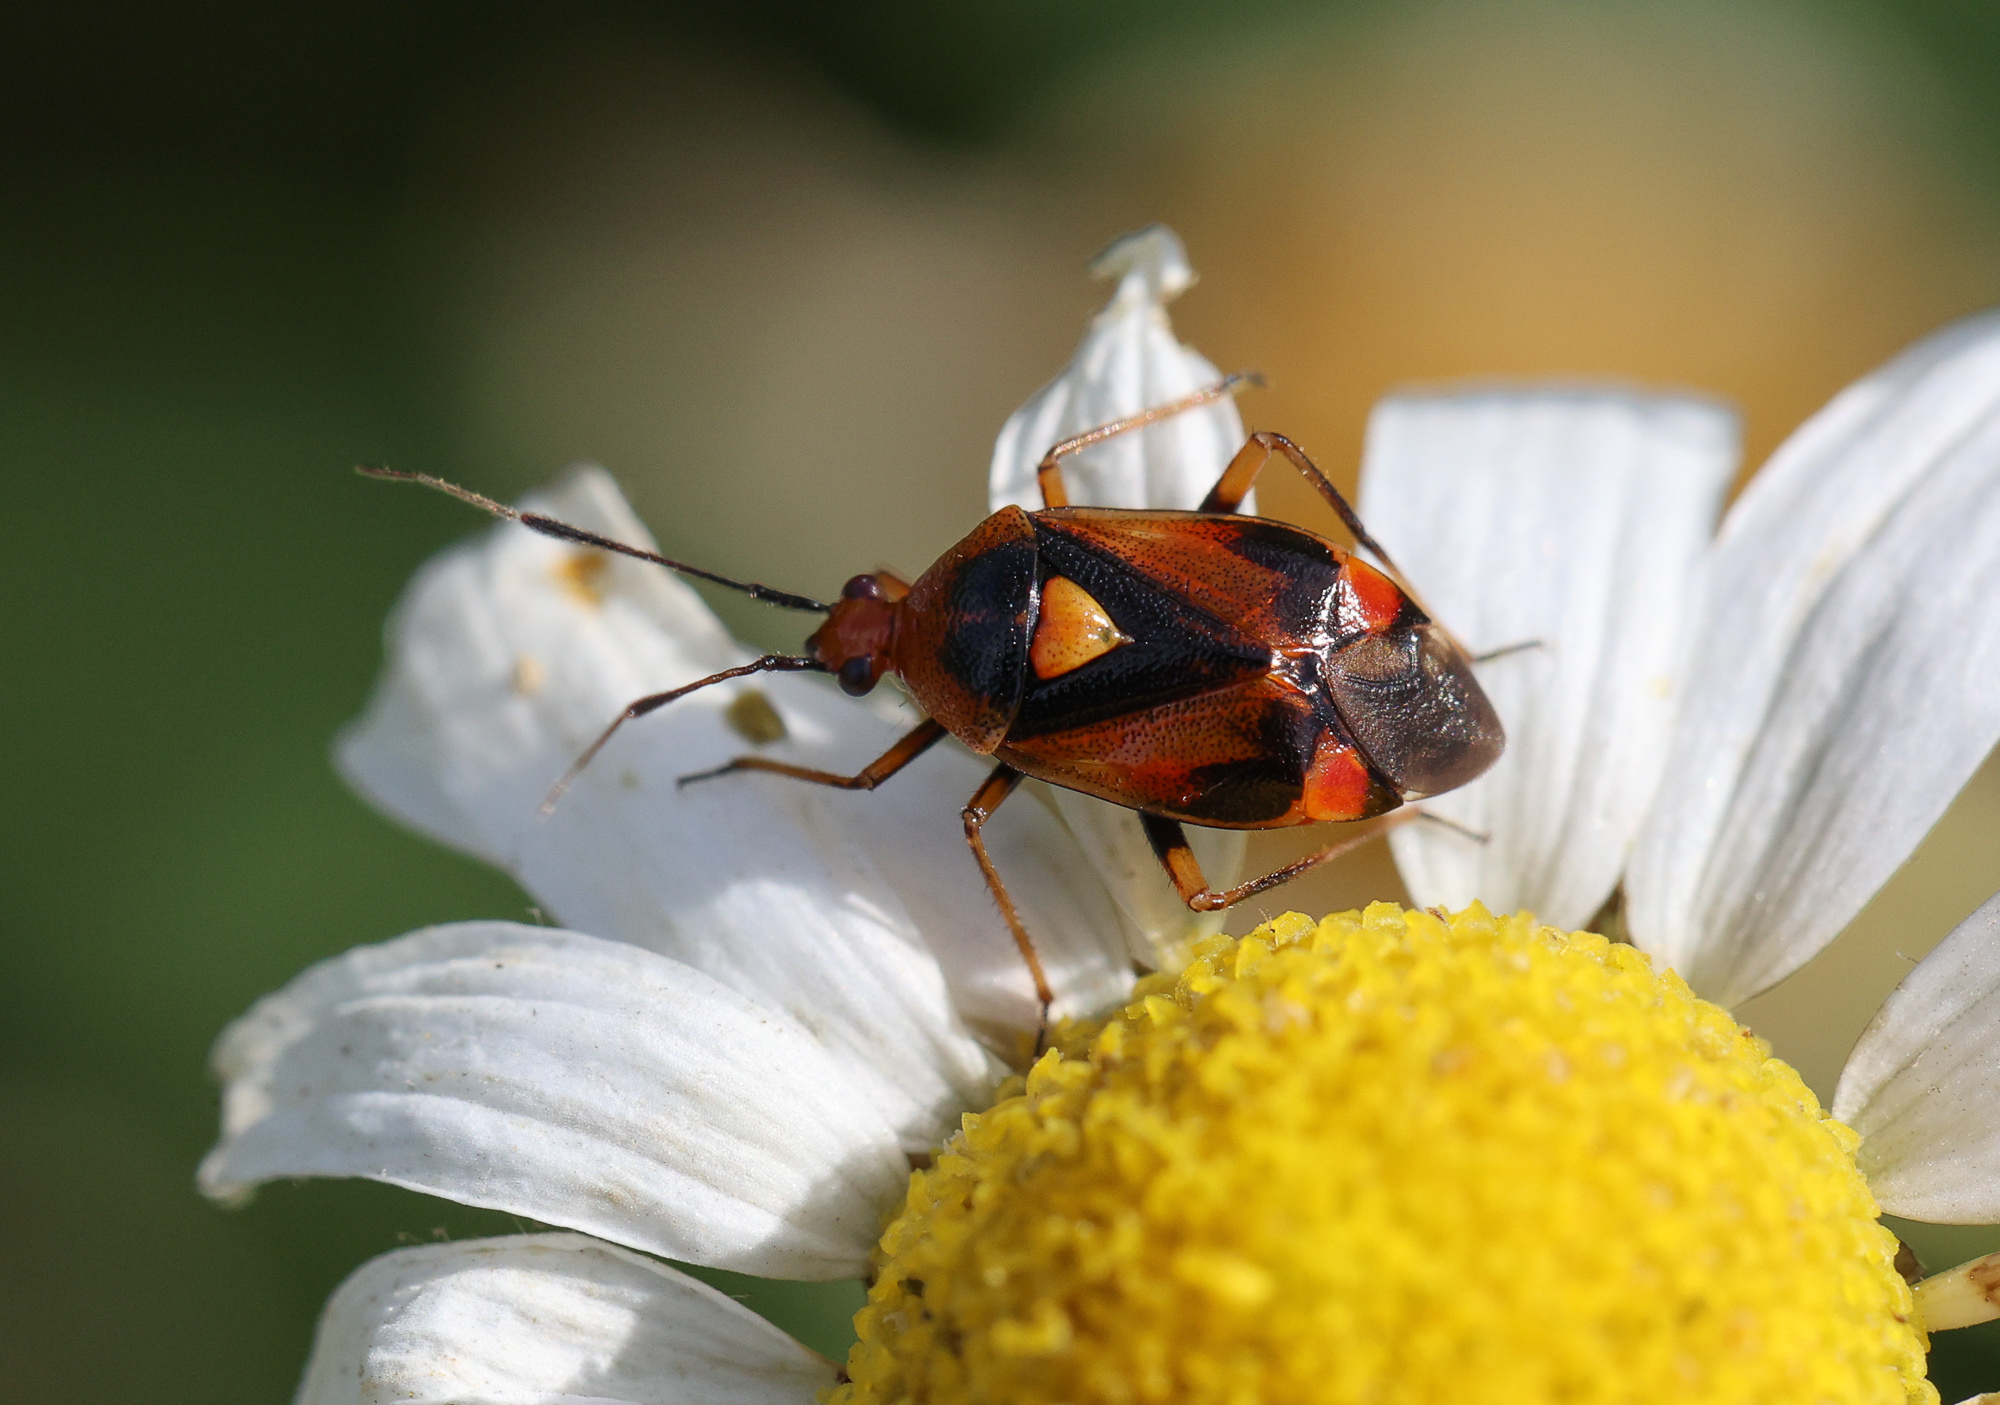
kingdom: Animalia
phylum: Arthropoda
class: Insecta
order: Hemiptera
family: Miridae
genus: Deraeocoris
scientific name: Deraeocoris ruber
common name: Plant bug
